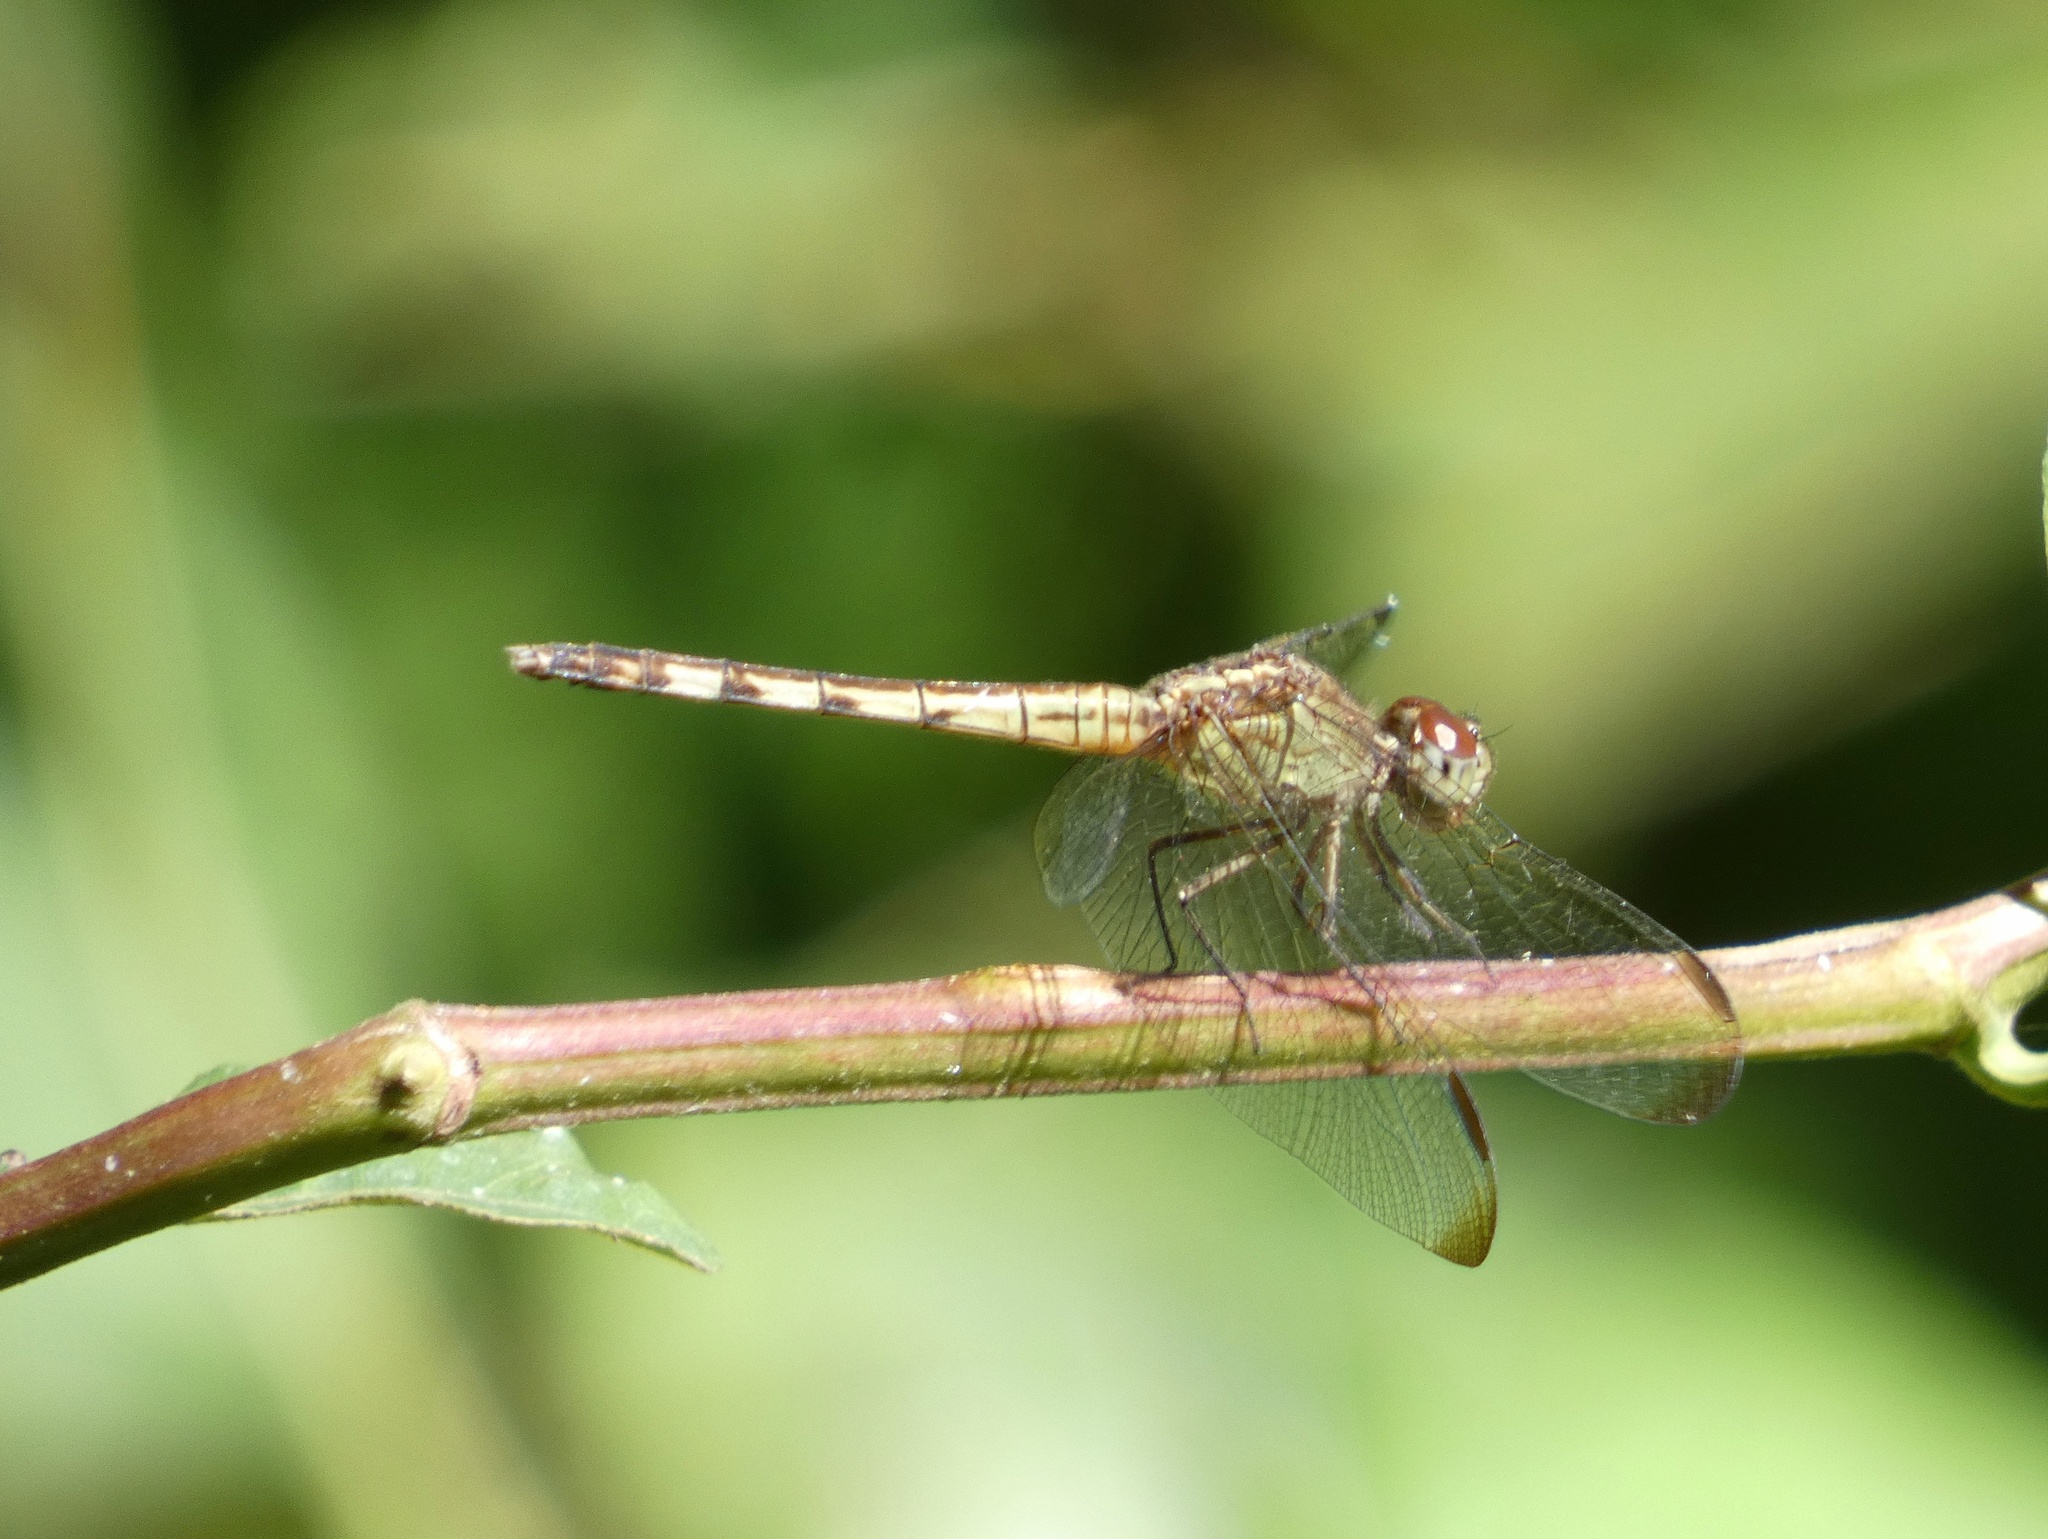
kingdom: Animalia
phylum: Arthropoda
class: Insecta
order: Odonata
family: Libellulidae
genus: Erythrodiplax
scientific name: Erythrodiplax umbrata
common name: Band-winged dragonlet
